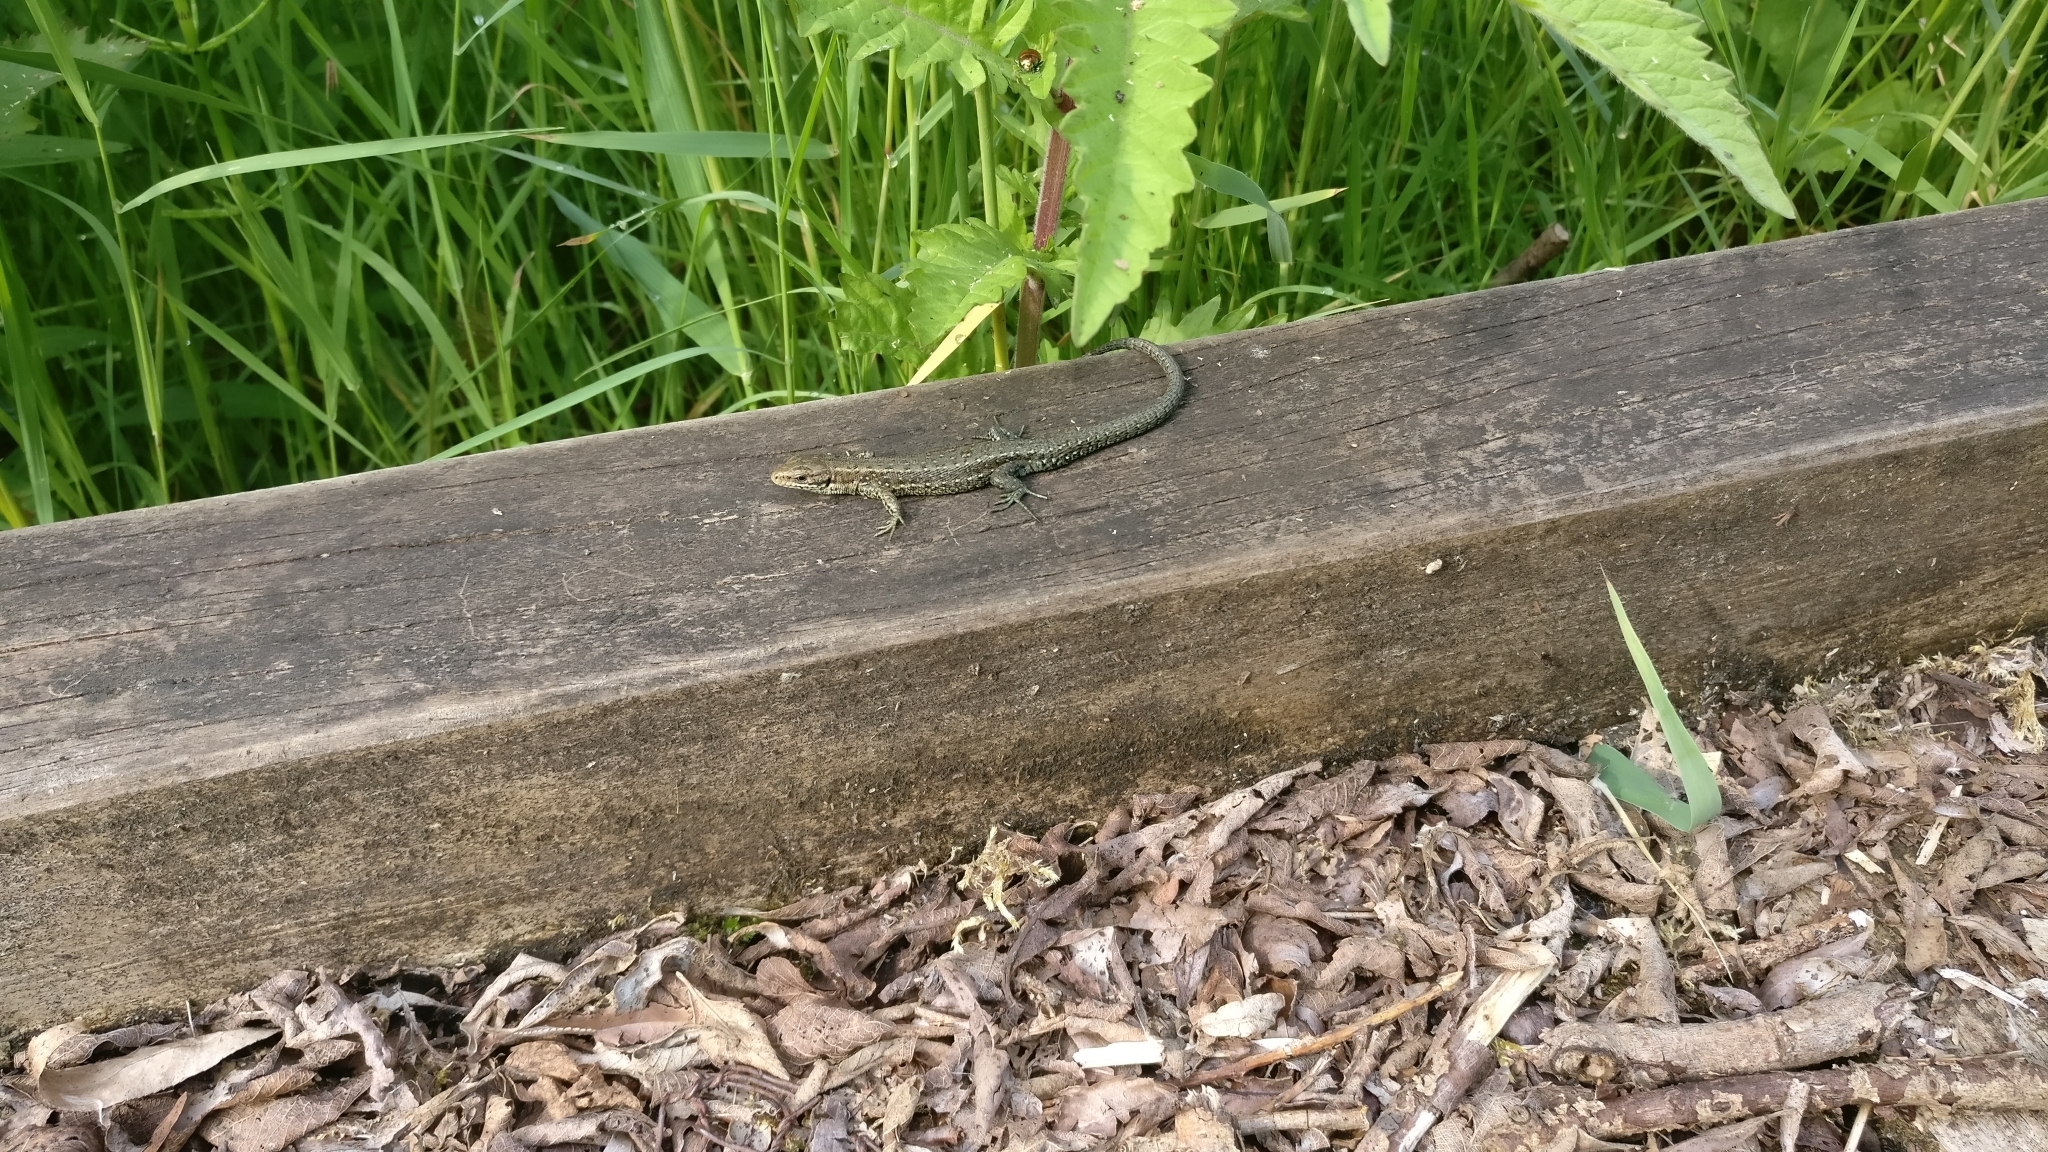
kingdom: Animalia
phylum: Chordata
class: Squamata
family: Lacertidae
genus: Zootoca
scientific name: Zootoca vivipara
